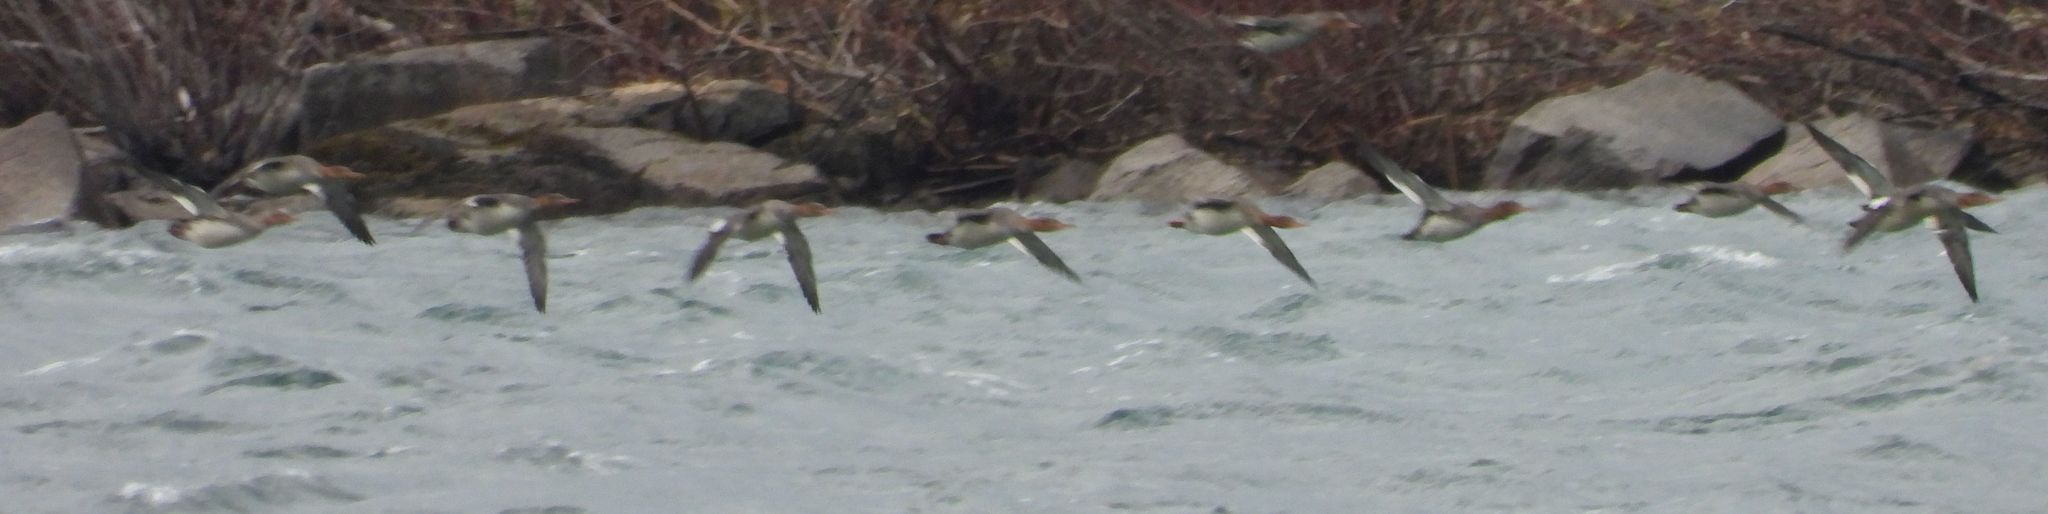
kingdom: Animalia
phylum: Chordata
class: Aves
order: Anseriformes
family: Anatidae
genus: Mergus
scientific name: Mergus serrator
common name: Red-breasted merganser
